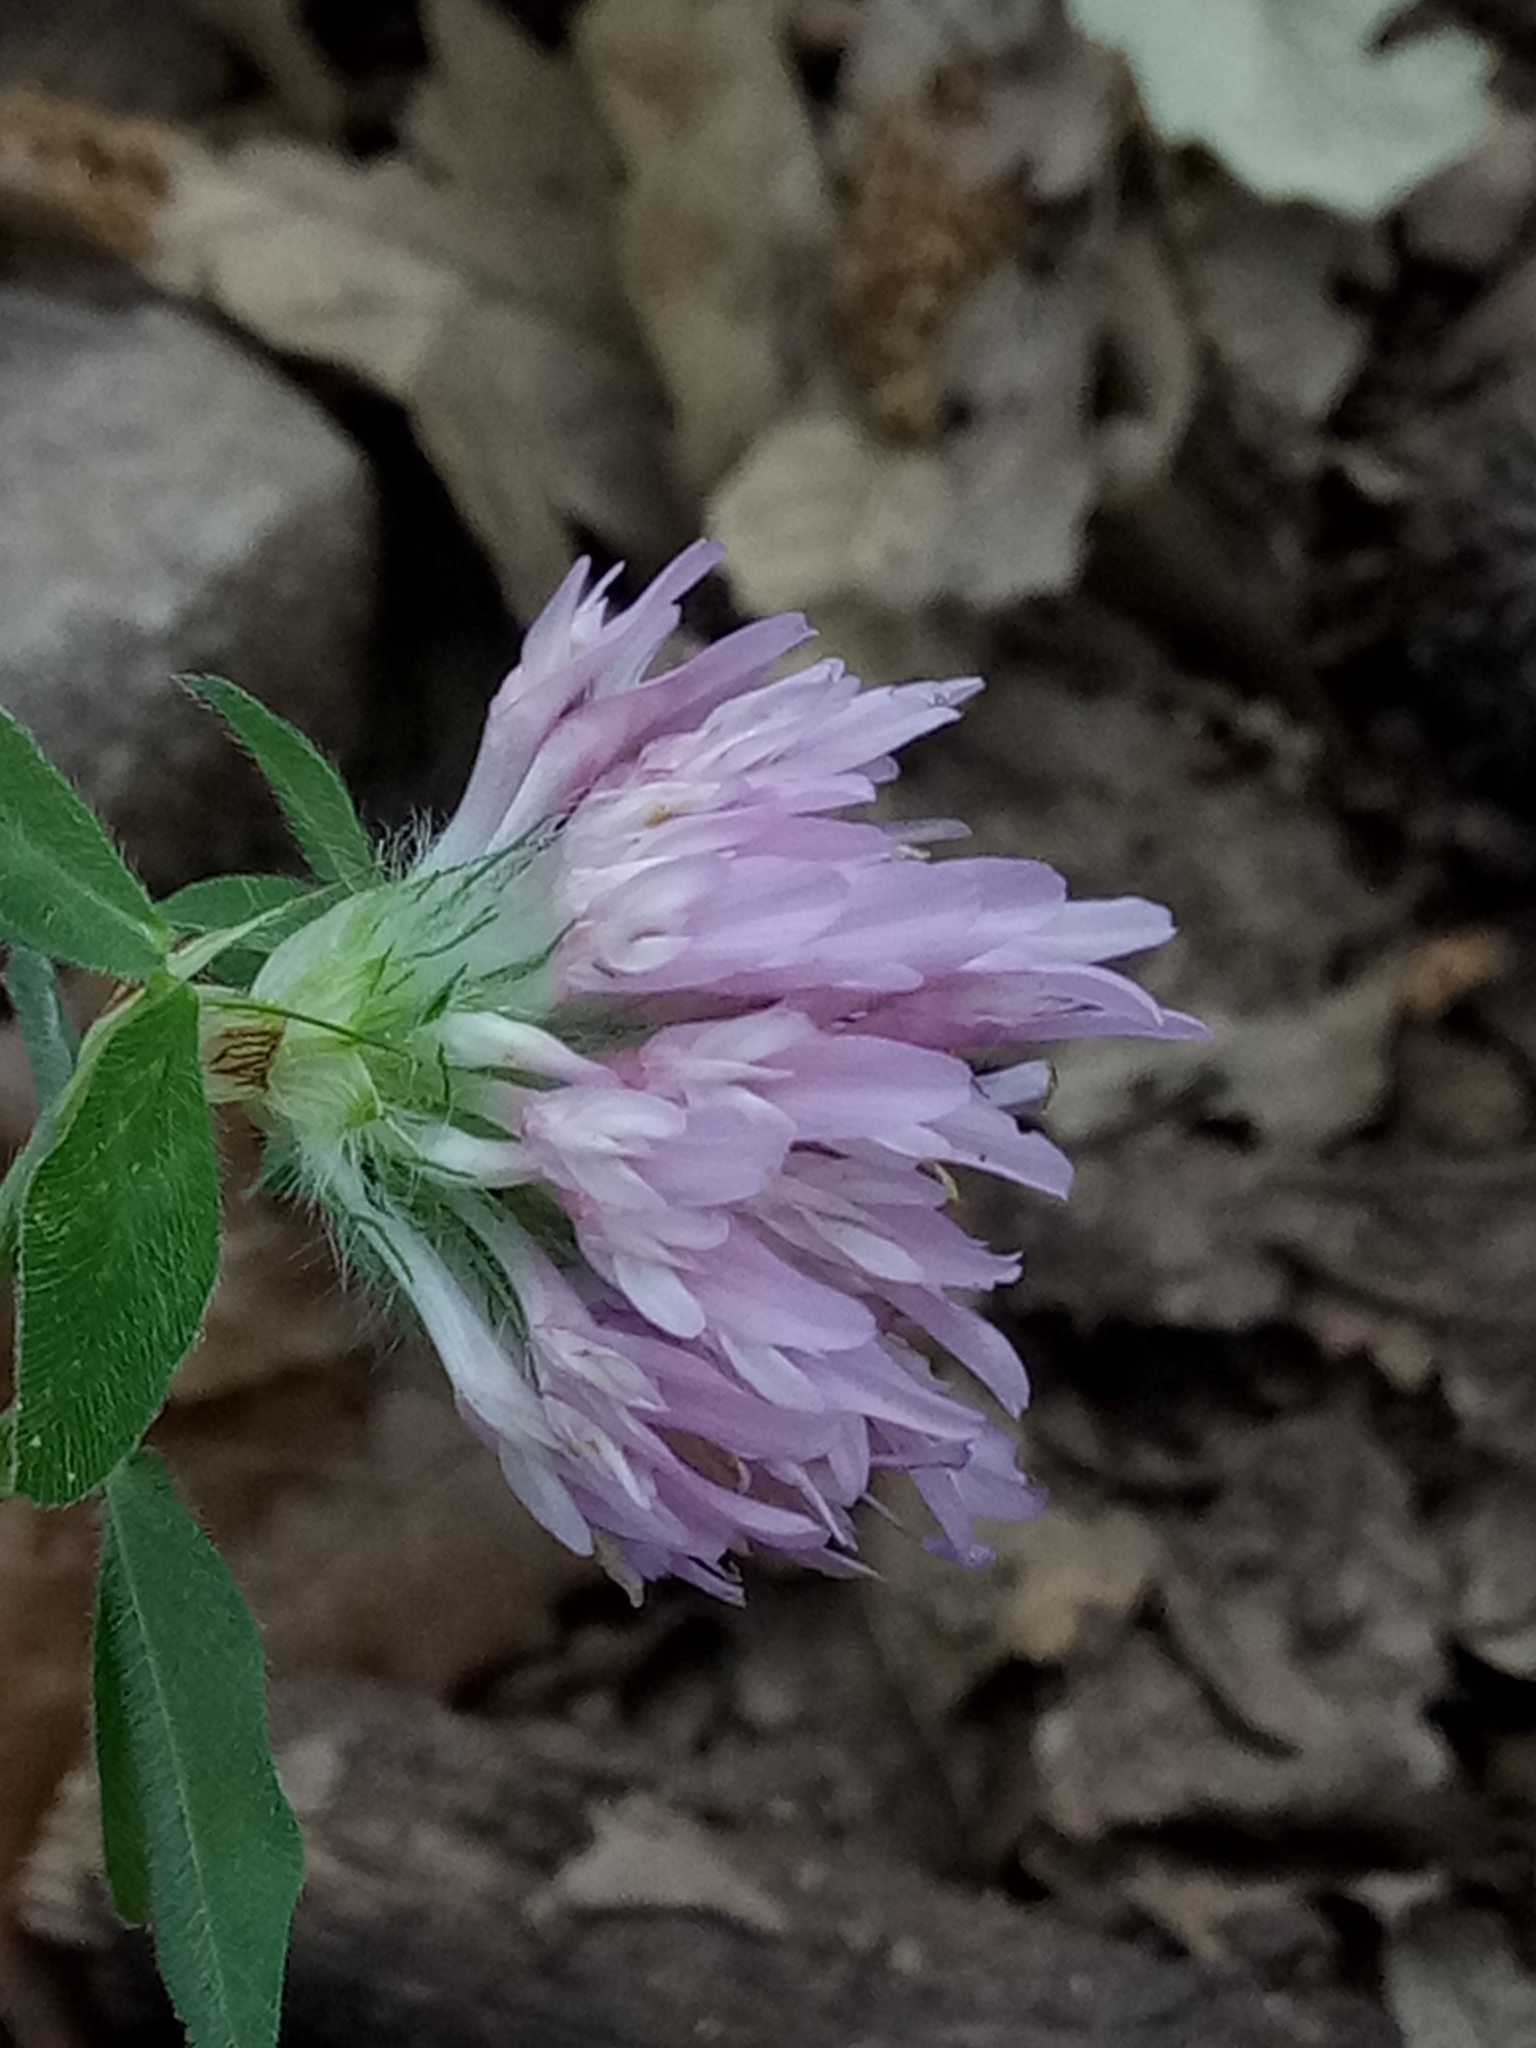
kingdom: Plantae
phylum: Tracheophyta
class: Magnoliopsida
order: Fabales
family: Fabaceae
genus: Trifolium
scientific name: Trifolium pratense
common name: Red clover
